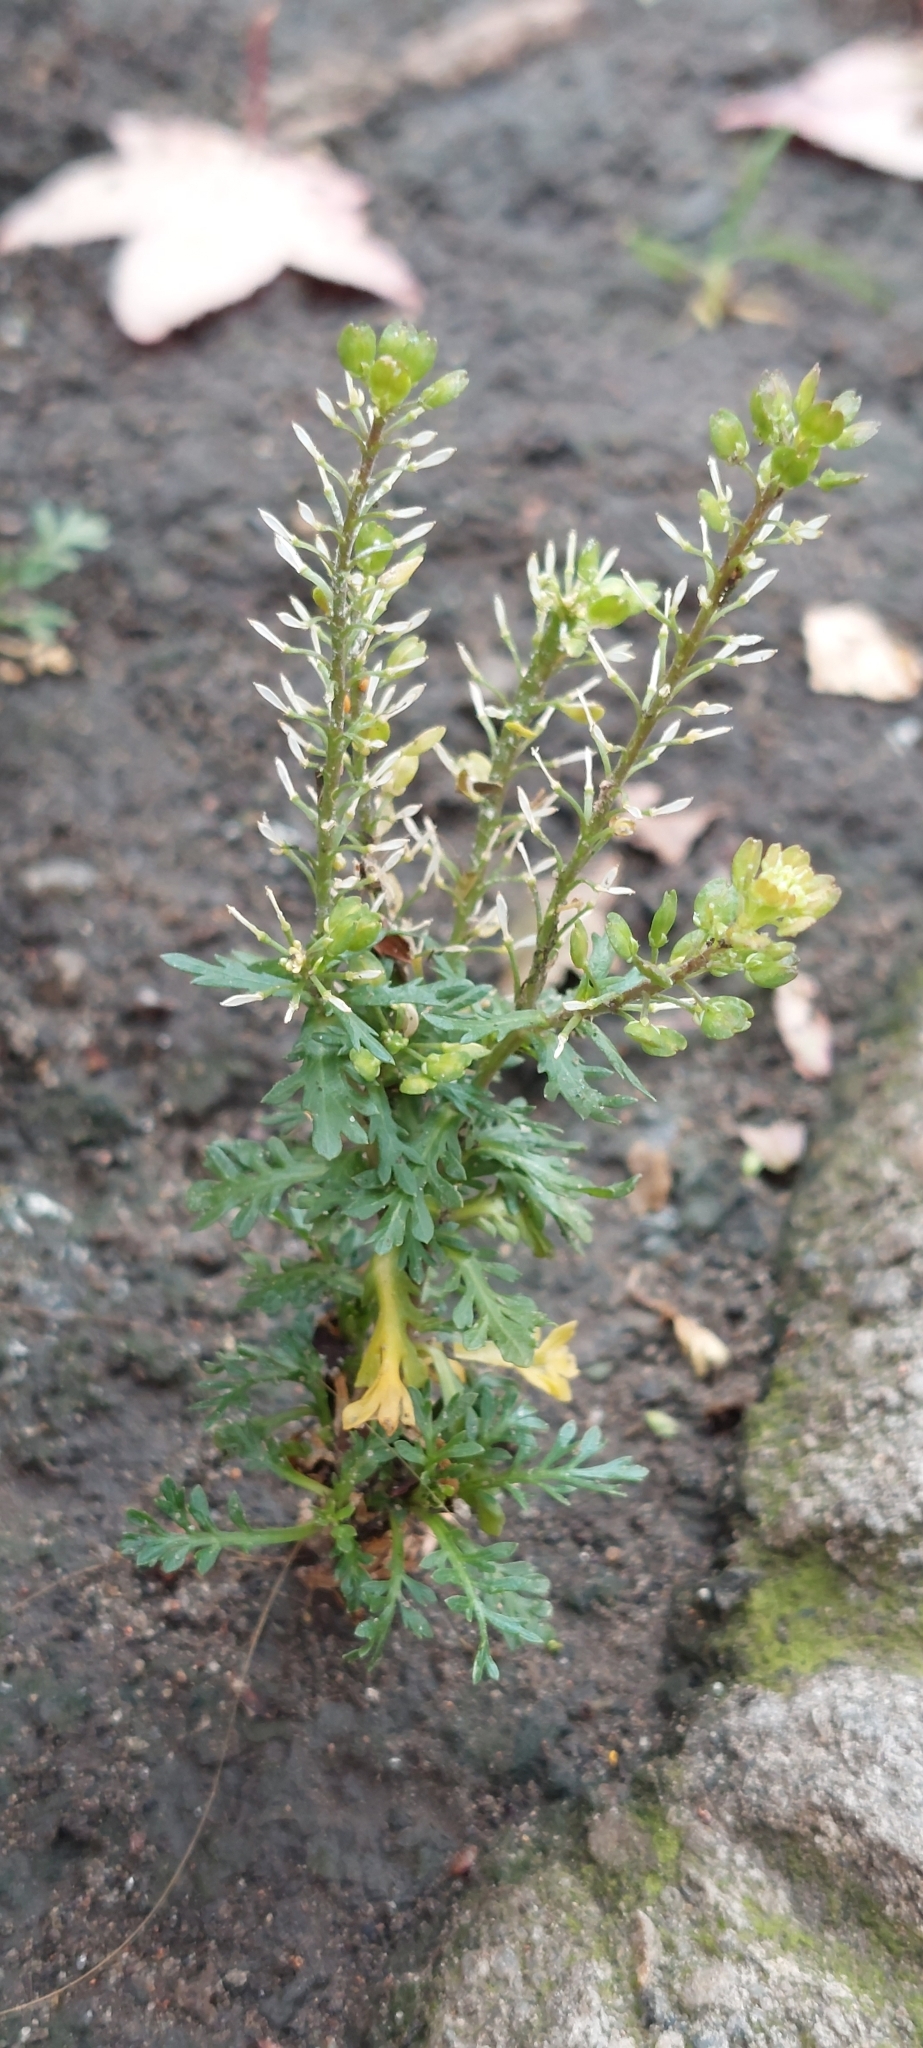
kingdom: Plantae
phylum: Tracheophyta
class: Magnoliopsida
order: Brassicales
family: Brassicaceae
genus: Lepidium
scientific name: Lepidium bipinnatifidum
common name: Wayside pepperwort
